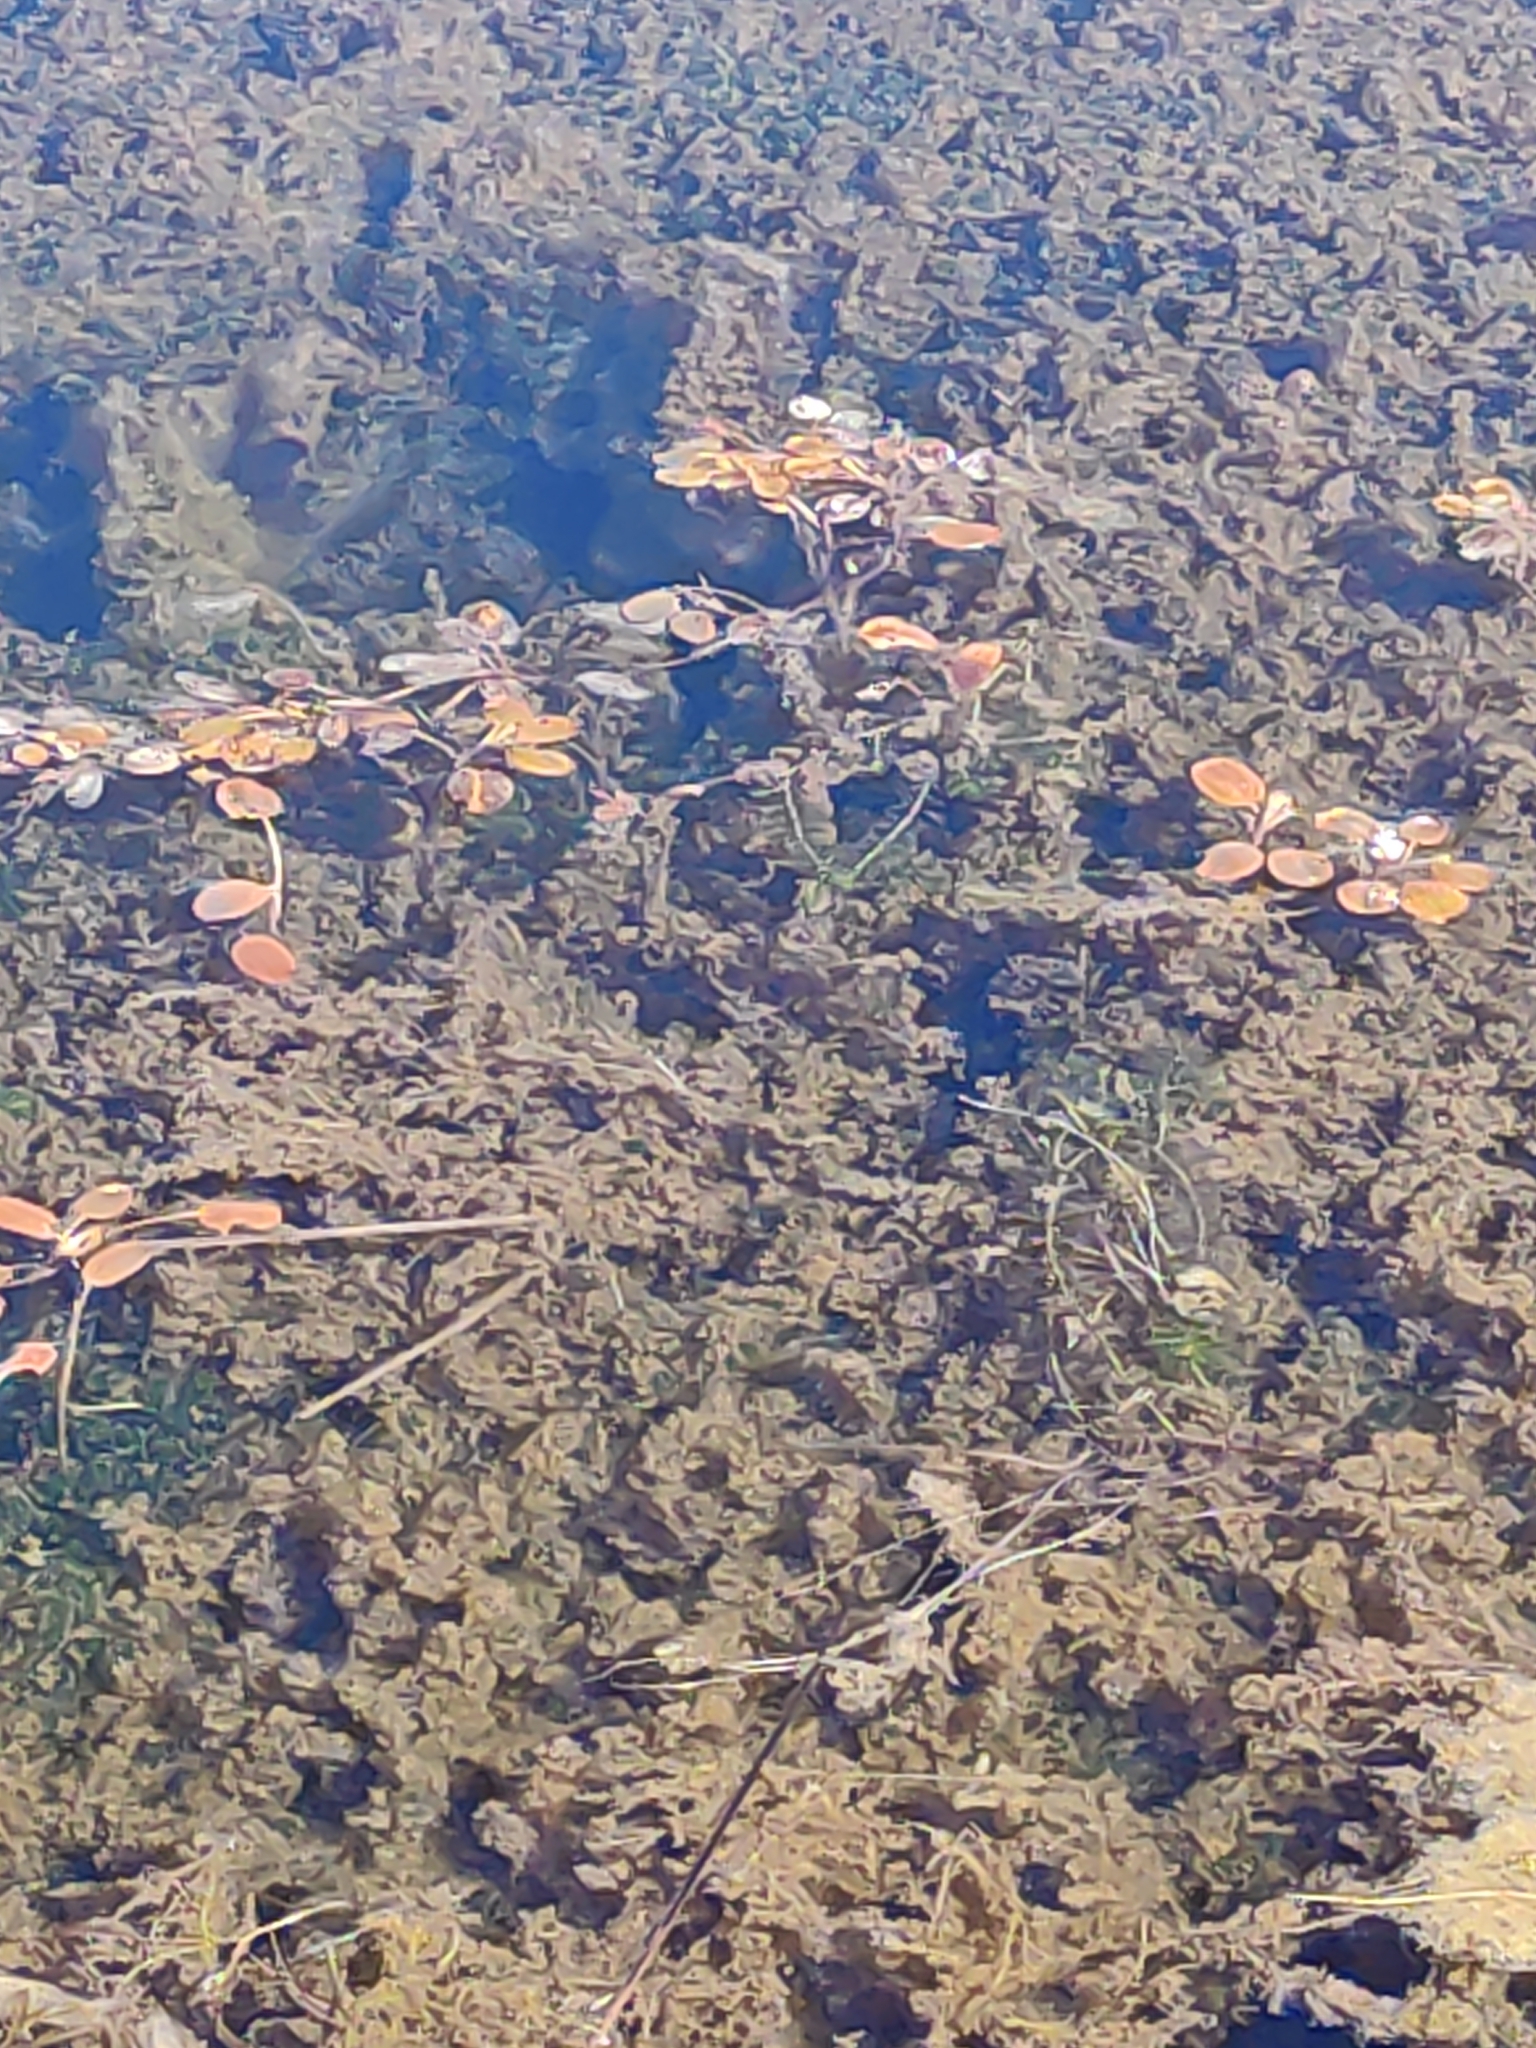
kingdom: Plantae
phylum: Tracheophyta
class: Liliopsida
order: Alismatales
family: Potamogetonaceae
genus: Potamogeton
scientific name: Potamogeton cheesemanii
